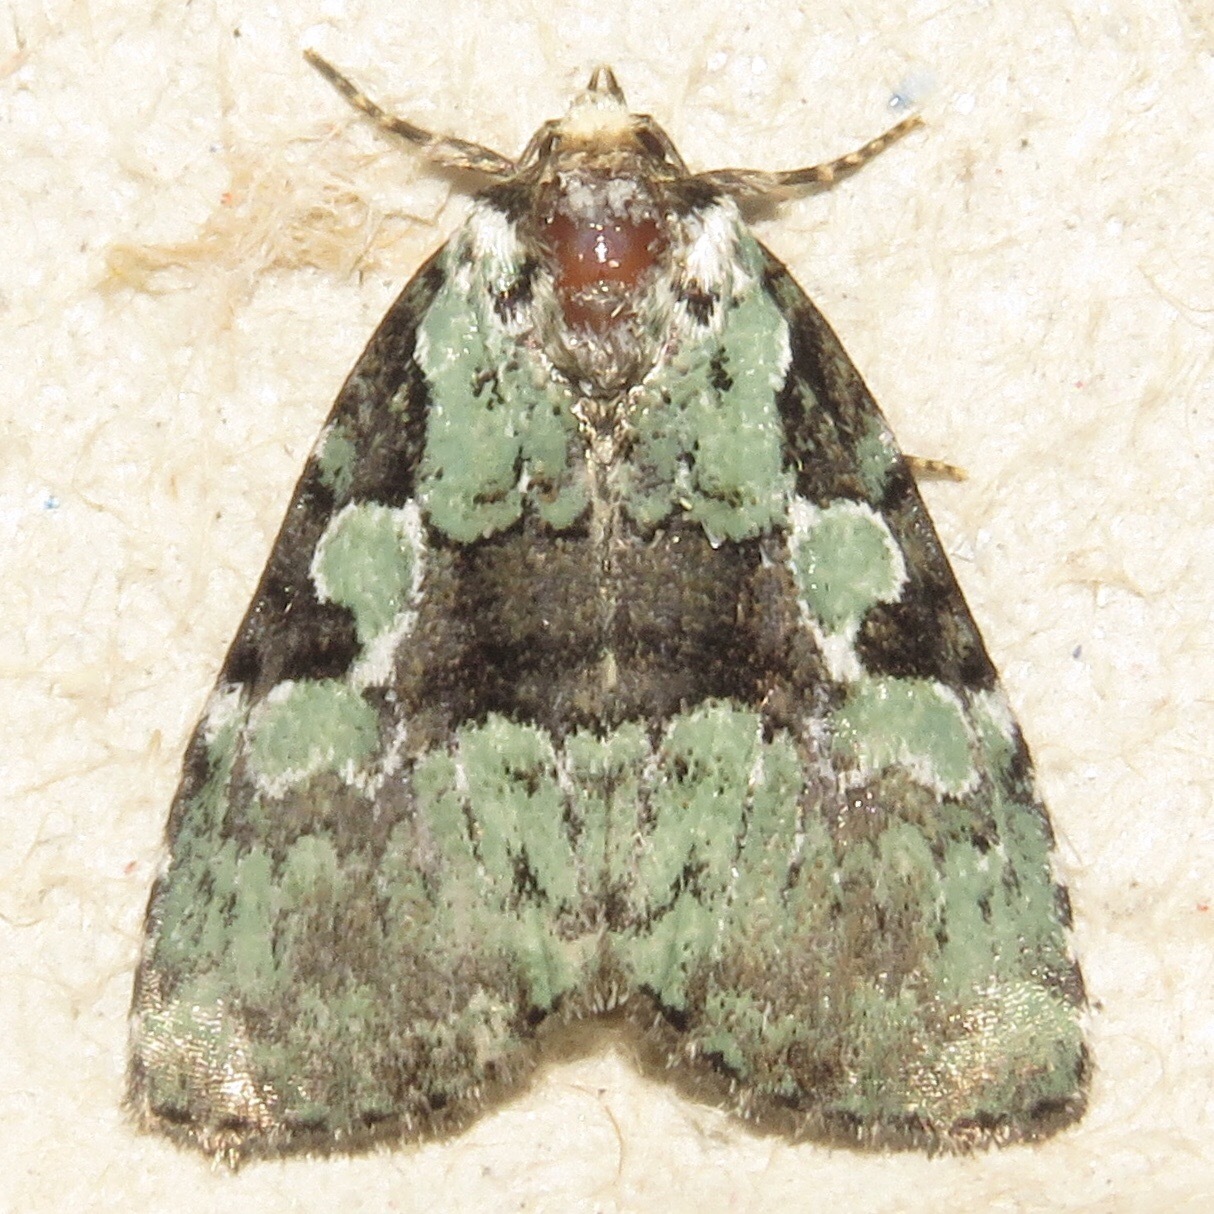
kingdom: Animalia
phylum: Arthropoda
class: Insecta
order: Lepidoptera
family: Noctuidae
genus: Leuconycta
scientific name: Leuconycta lepidula
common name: Marbled-green leuconycta moth
